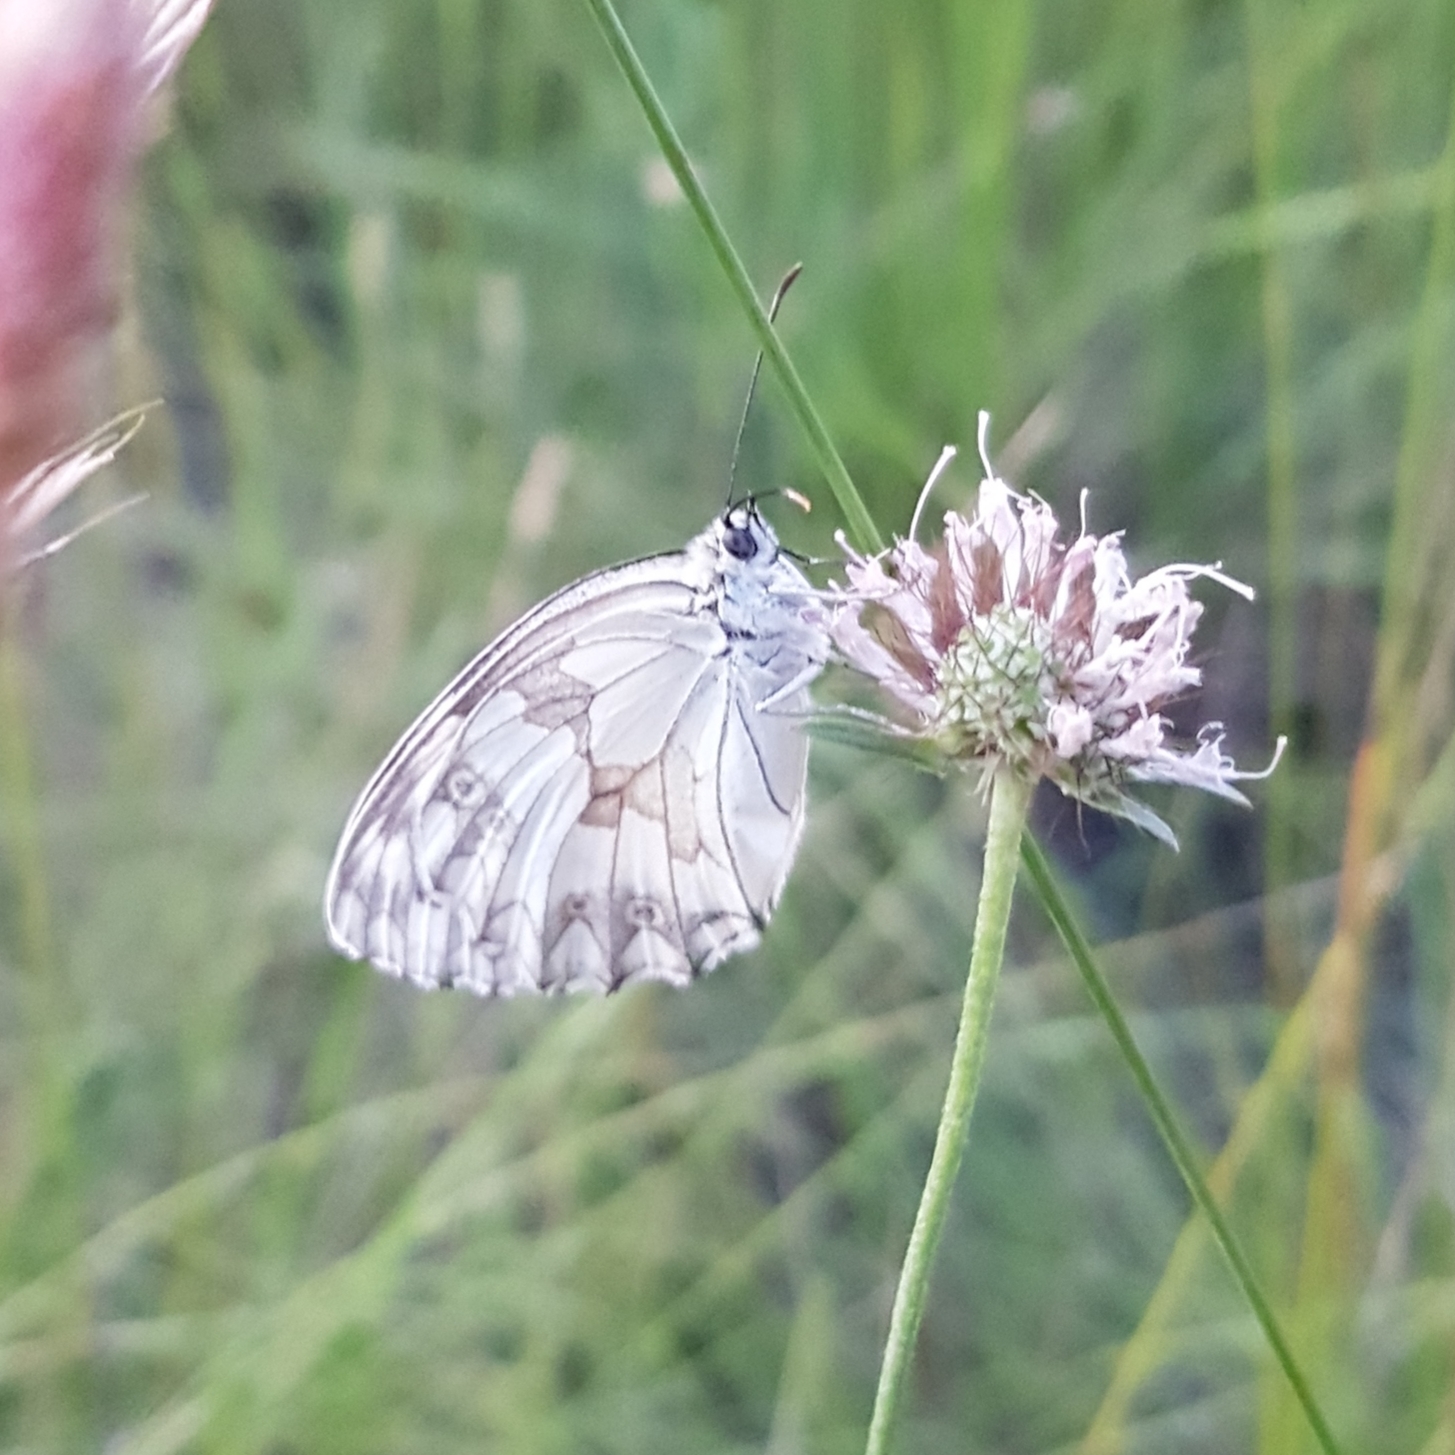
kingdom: Animalia
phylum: Arthropoda
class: Insecta
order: Lepidoptera
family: Nymphalidae
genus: Melanargia
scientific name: Melanargia lachesis
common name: Iberian marbled white
